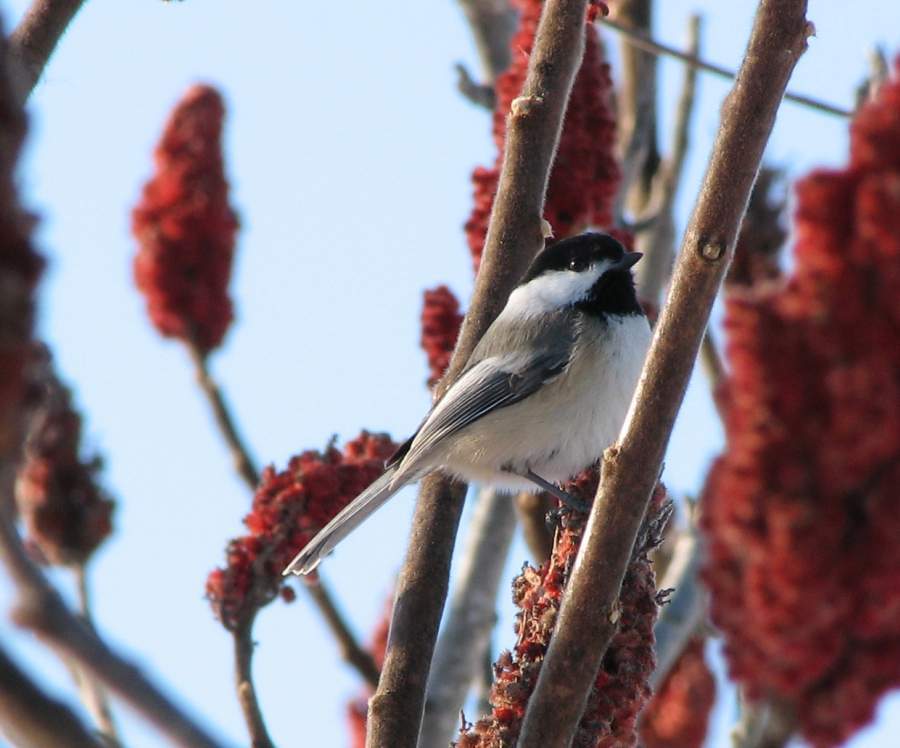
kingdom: Animalia
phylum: Chordata
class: Aves
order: Passeriformes
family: Paridae
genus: Poecile
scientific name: Poecile atricapillus
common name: Black-capped chickadee
